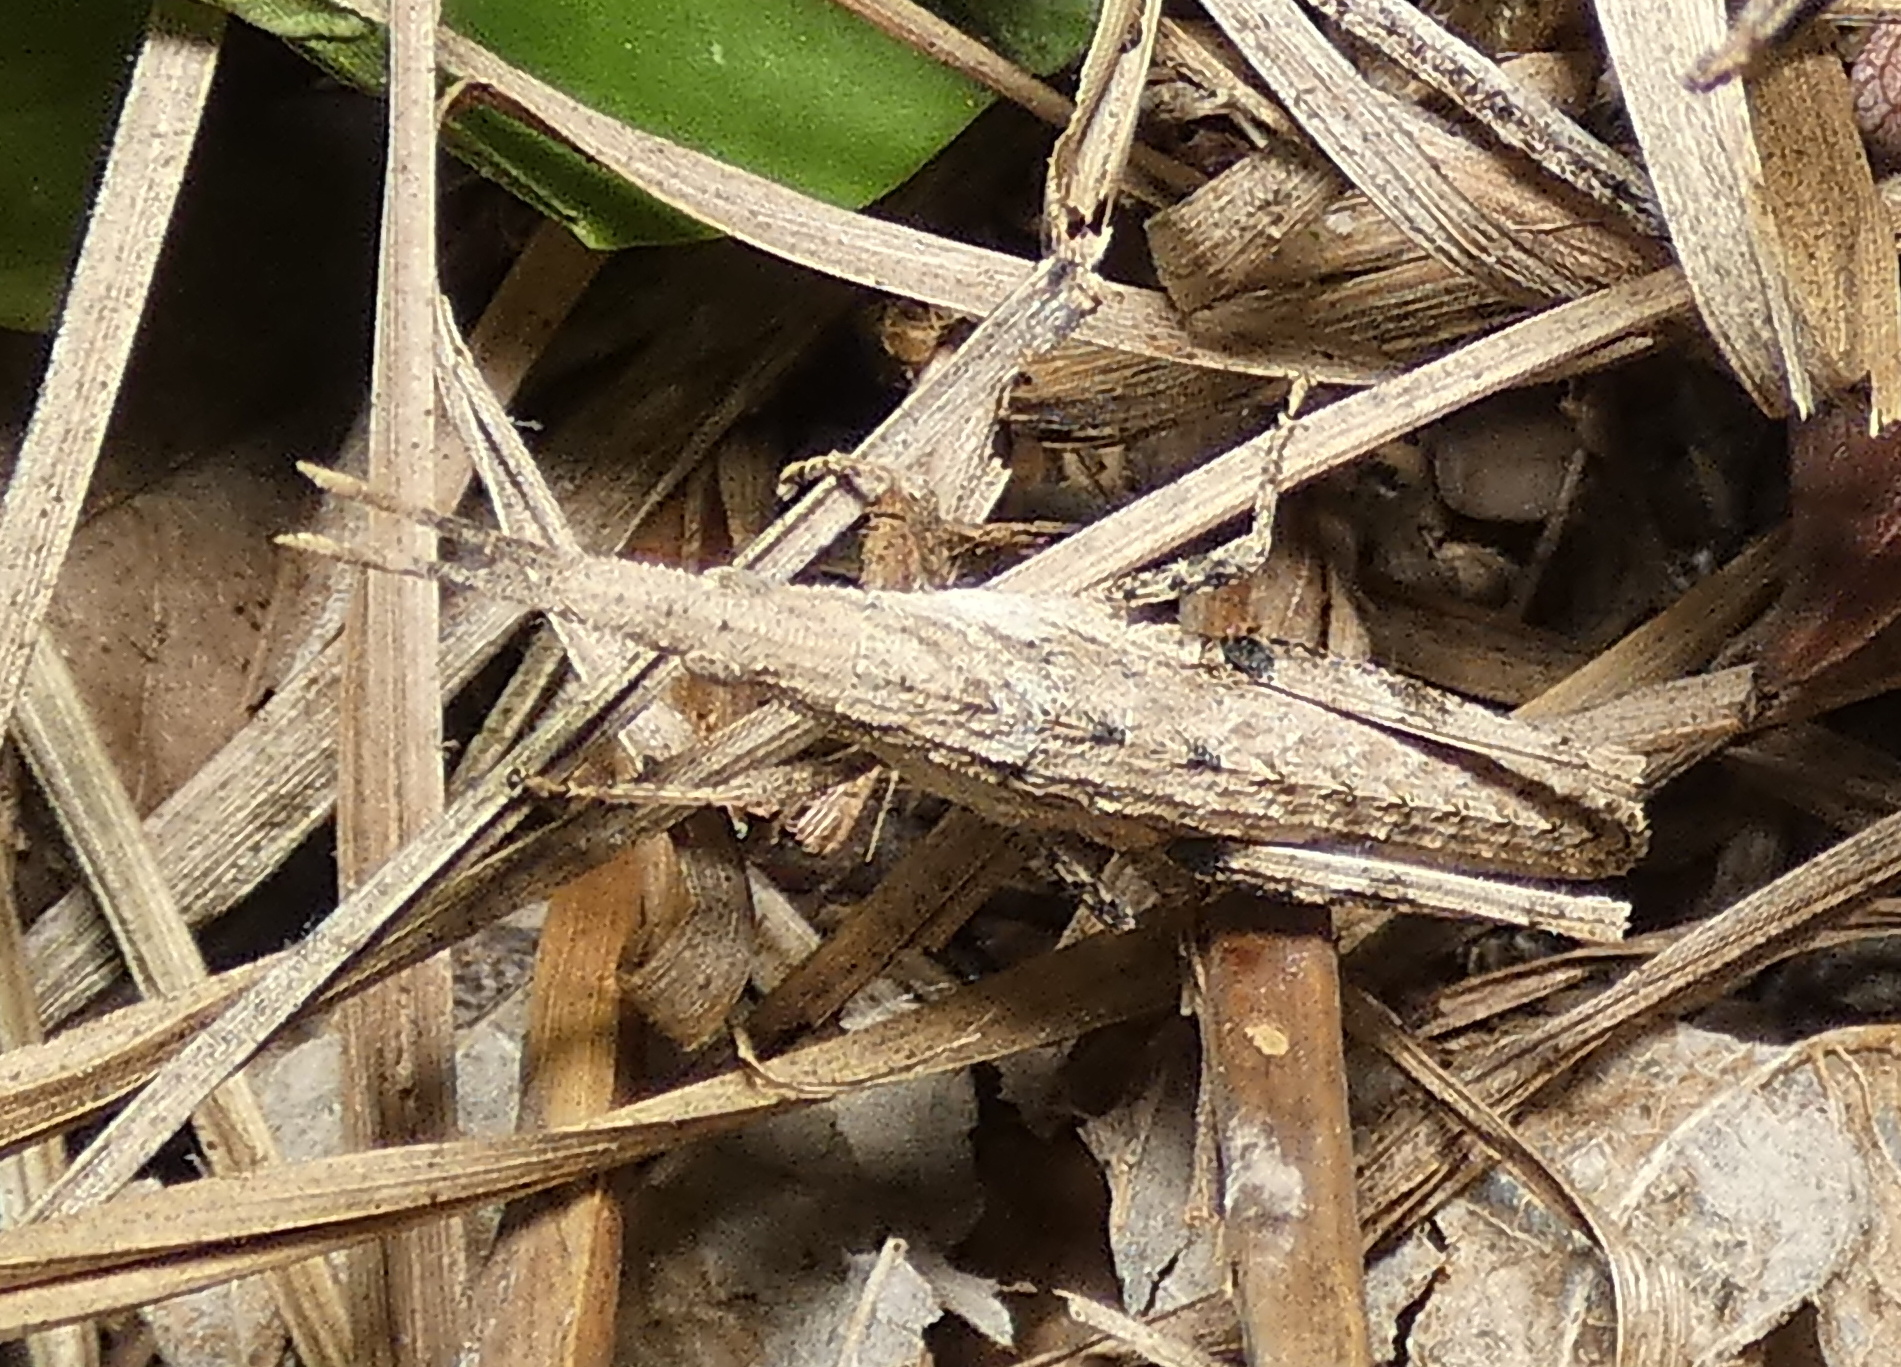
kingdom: Animalia
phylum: Arthropoda
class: Insecta
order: Orthoptera
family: Pyrgomorphidae
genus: Algete
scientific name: Algete brunneri
